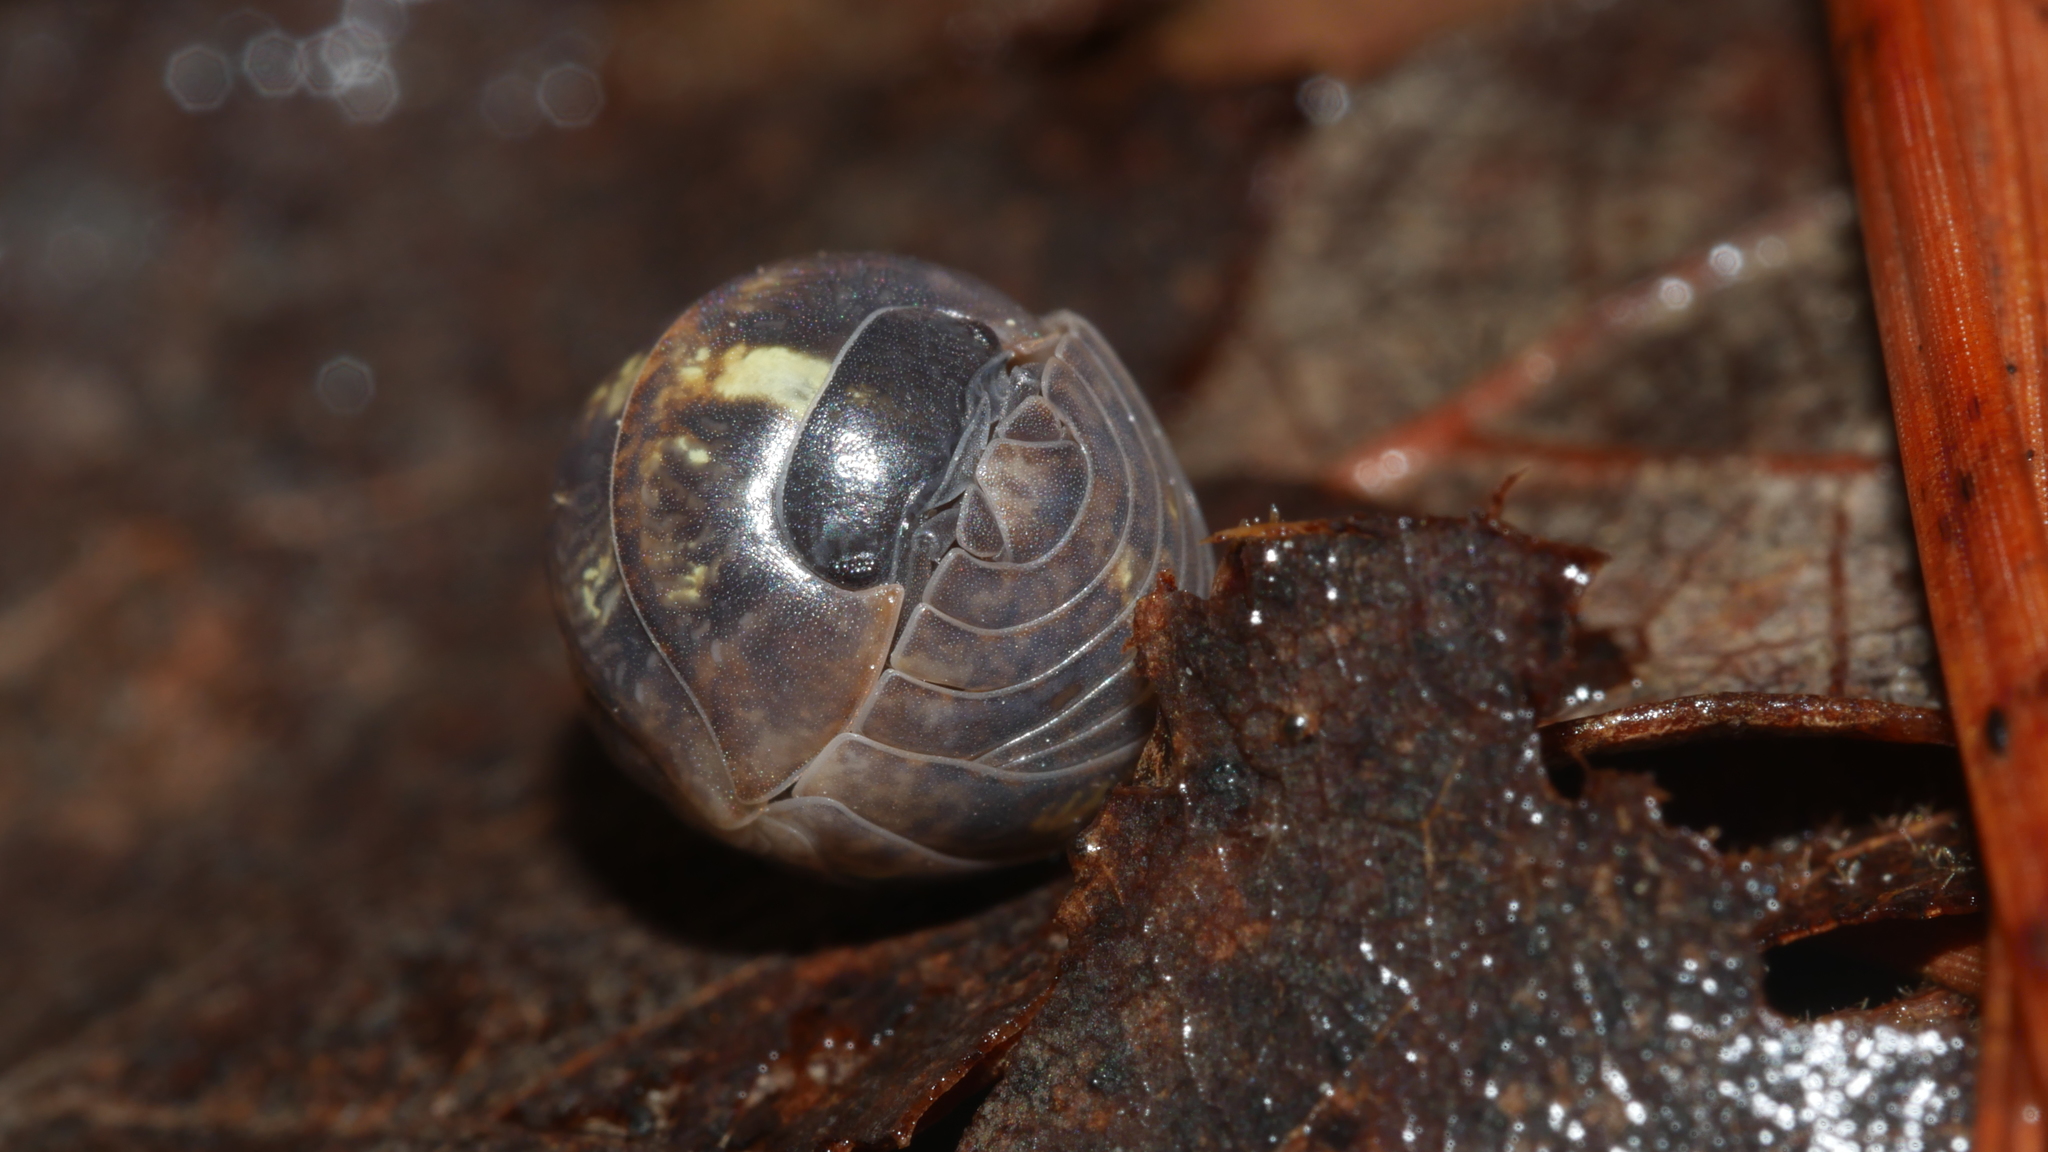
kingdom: Animalia
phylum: Arthropoda
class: Malacostraca
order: Isopoda
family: Armadillidiidae
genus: Armadillidium
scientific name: Armadillidium vulgare
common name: Common pill woodlouse
